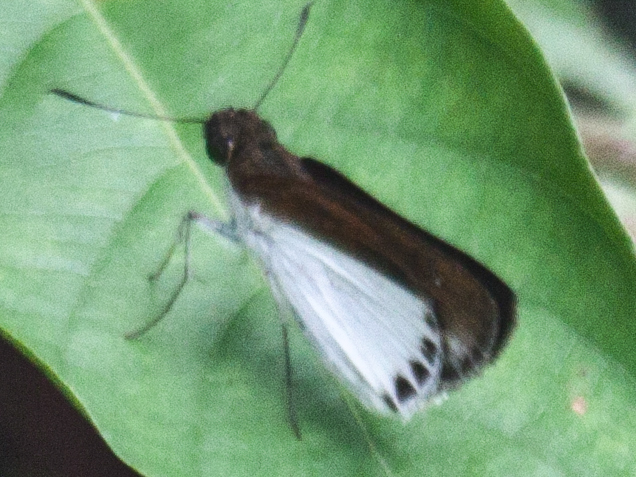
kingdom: Animalia
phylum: Arthropoda
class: Insecta
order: Lepidoptera
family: Hesperiidae
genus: Iton
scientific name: Iton semamora
